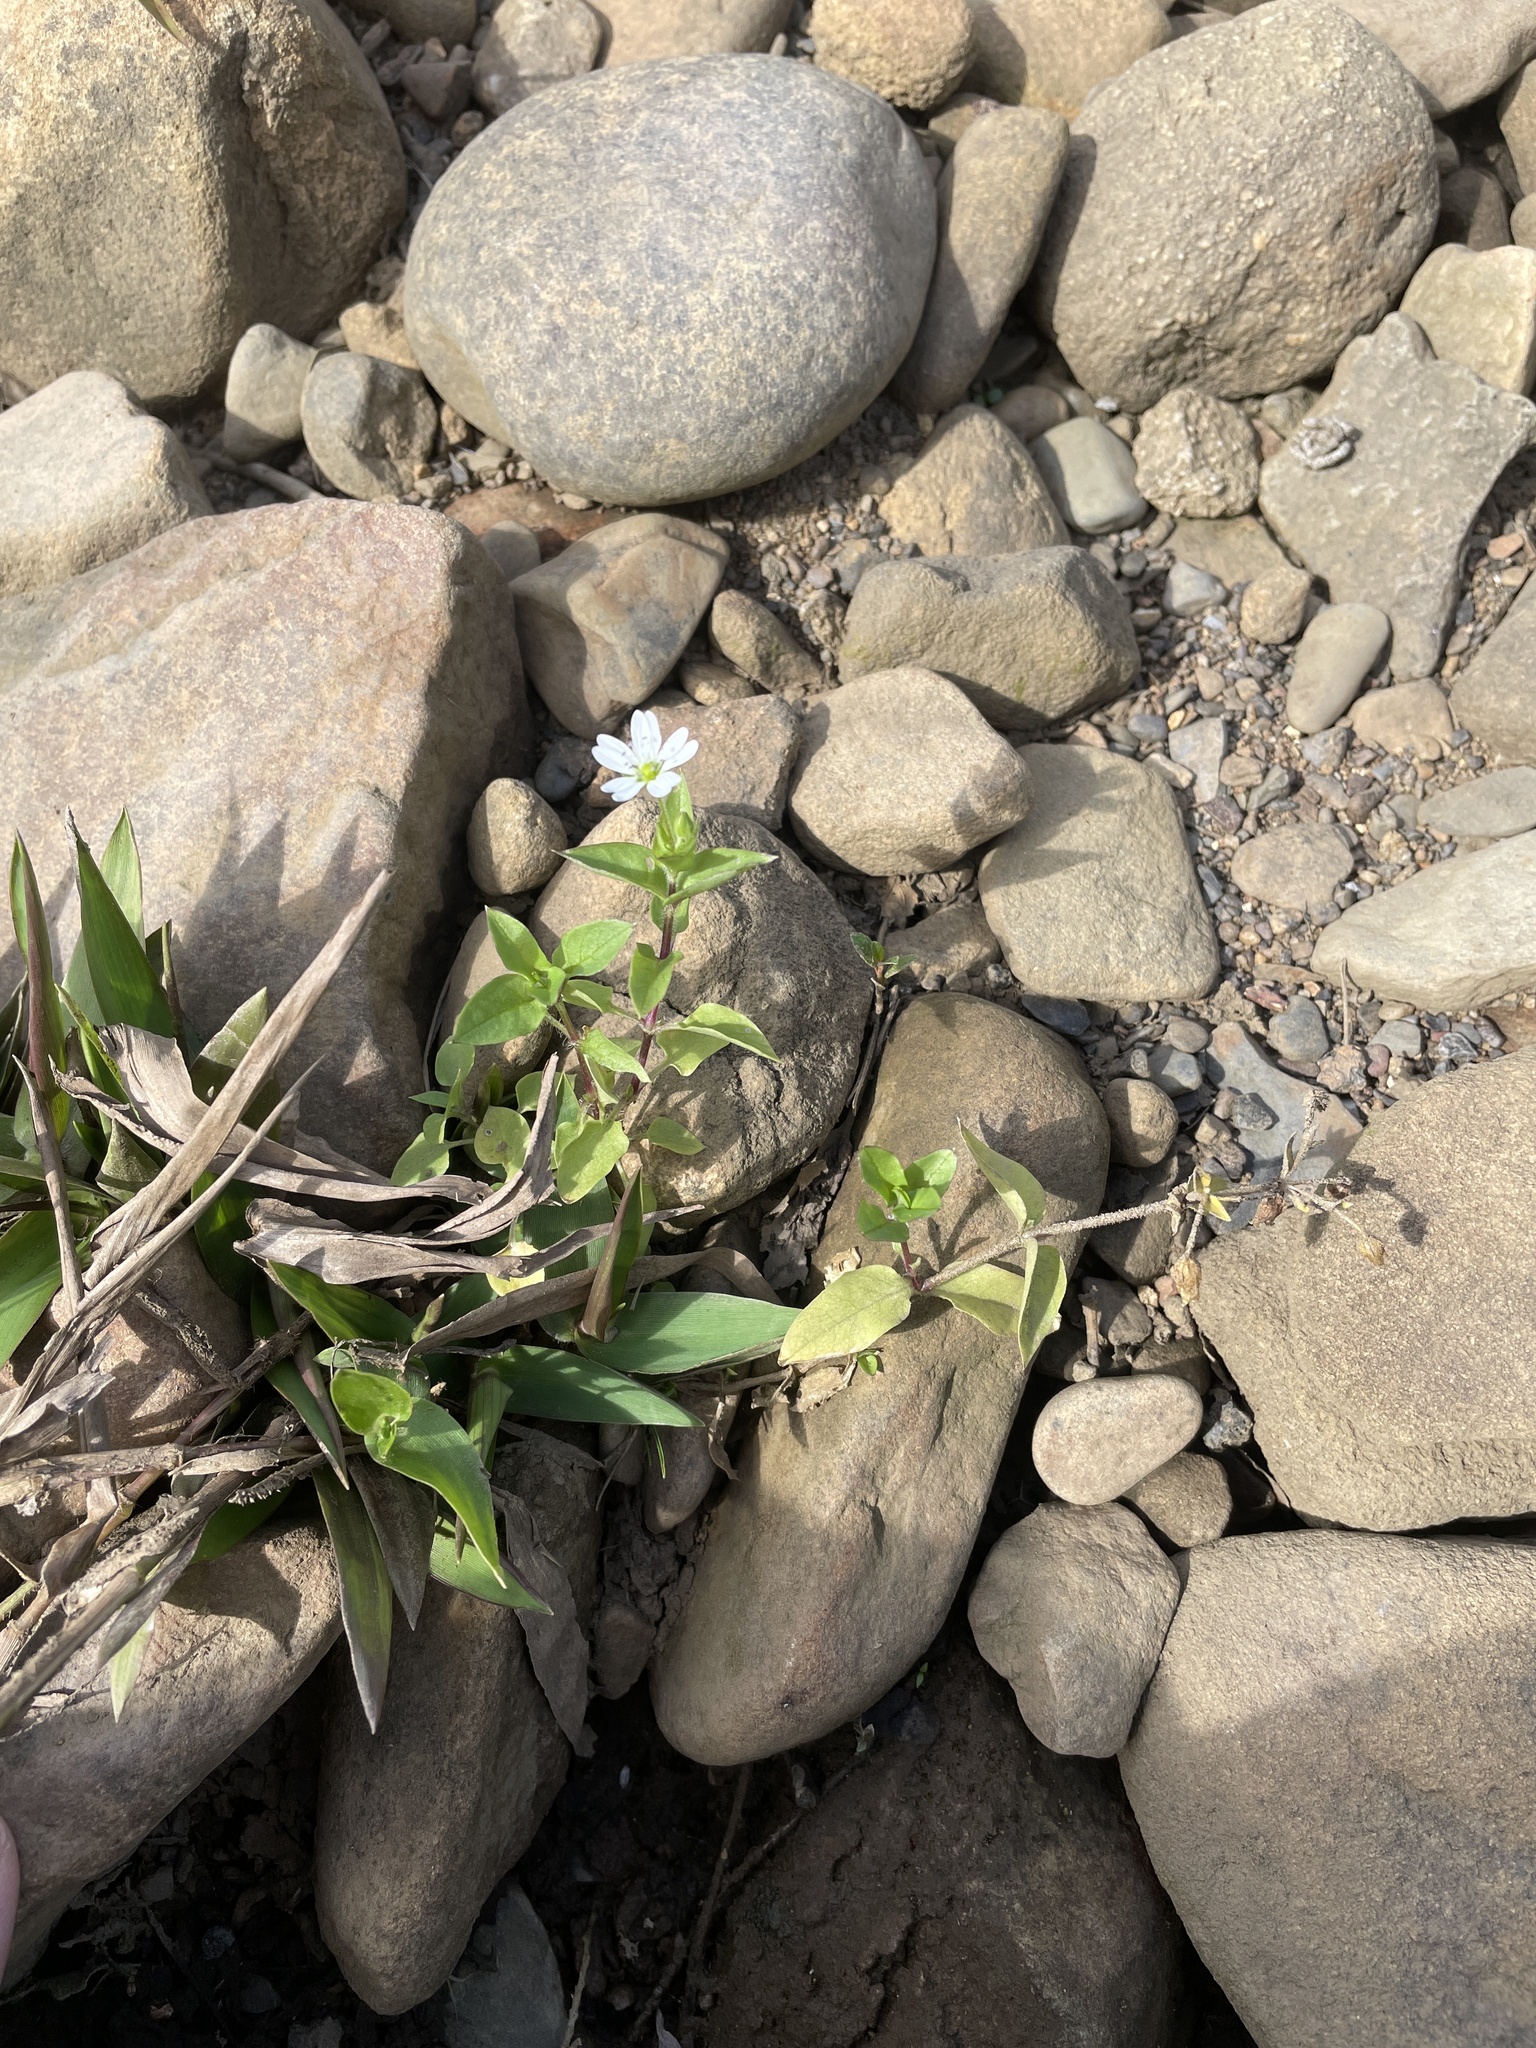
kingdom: Plantae
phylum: Tracheophyta
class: Magnoliopsida
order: Caryophyllales
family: Caryophyllaceae
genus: Stellaria
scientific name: Stellaria aquatica
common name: Water chickweed
